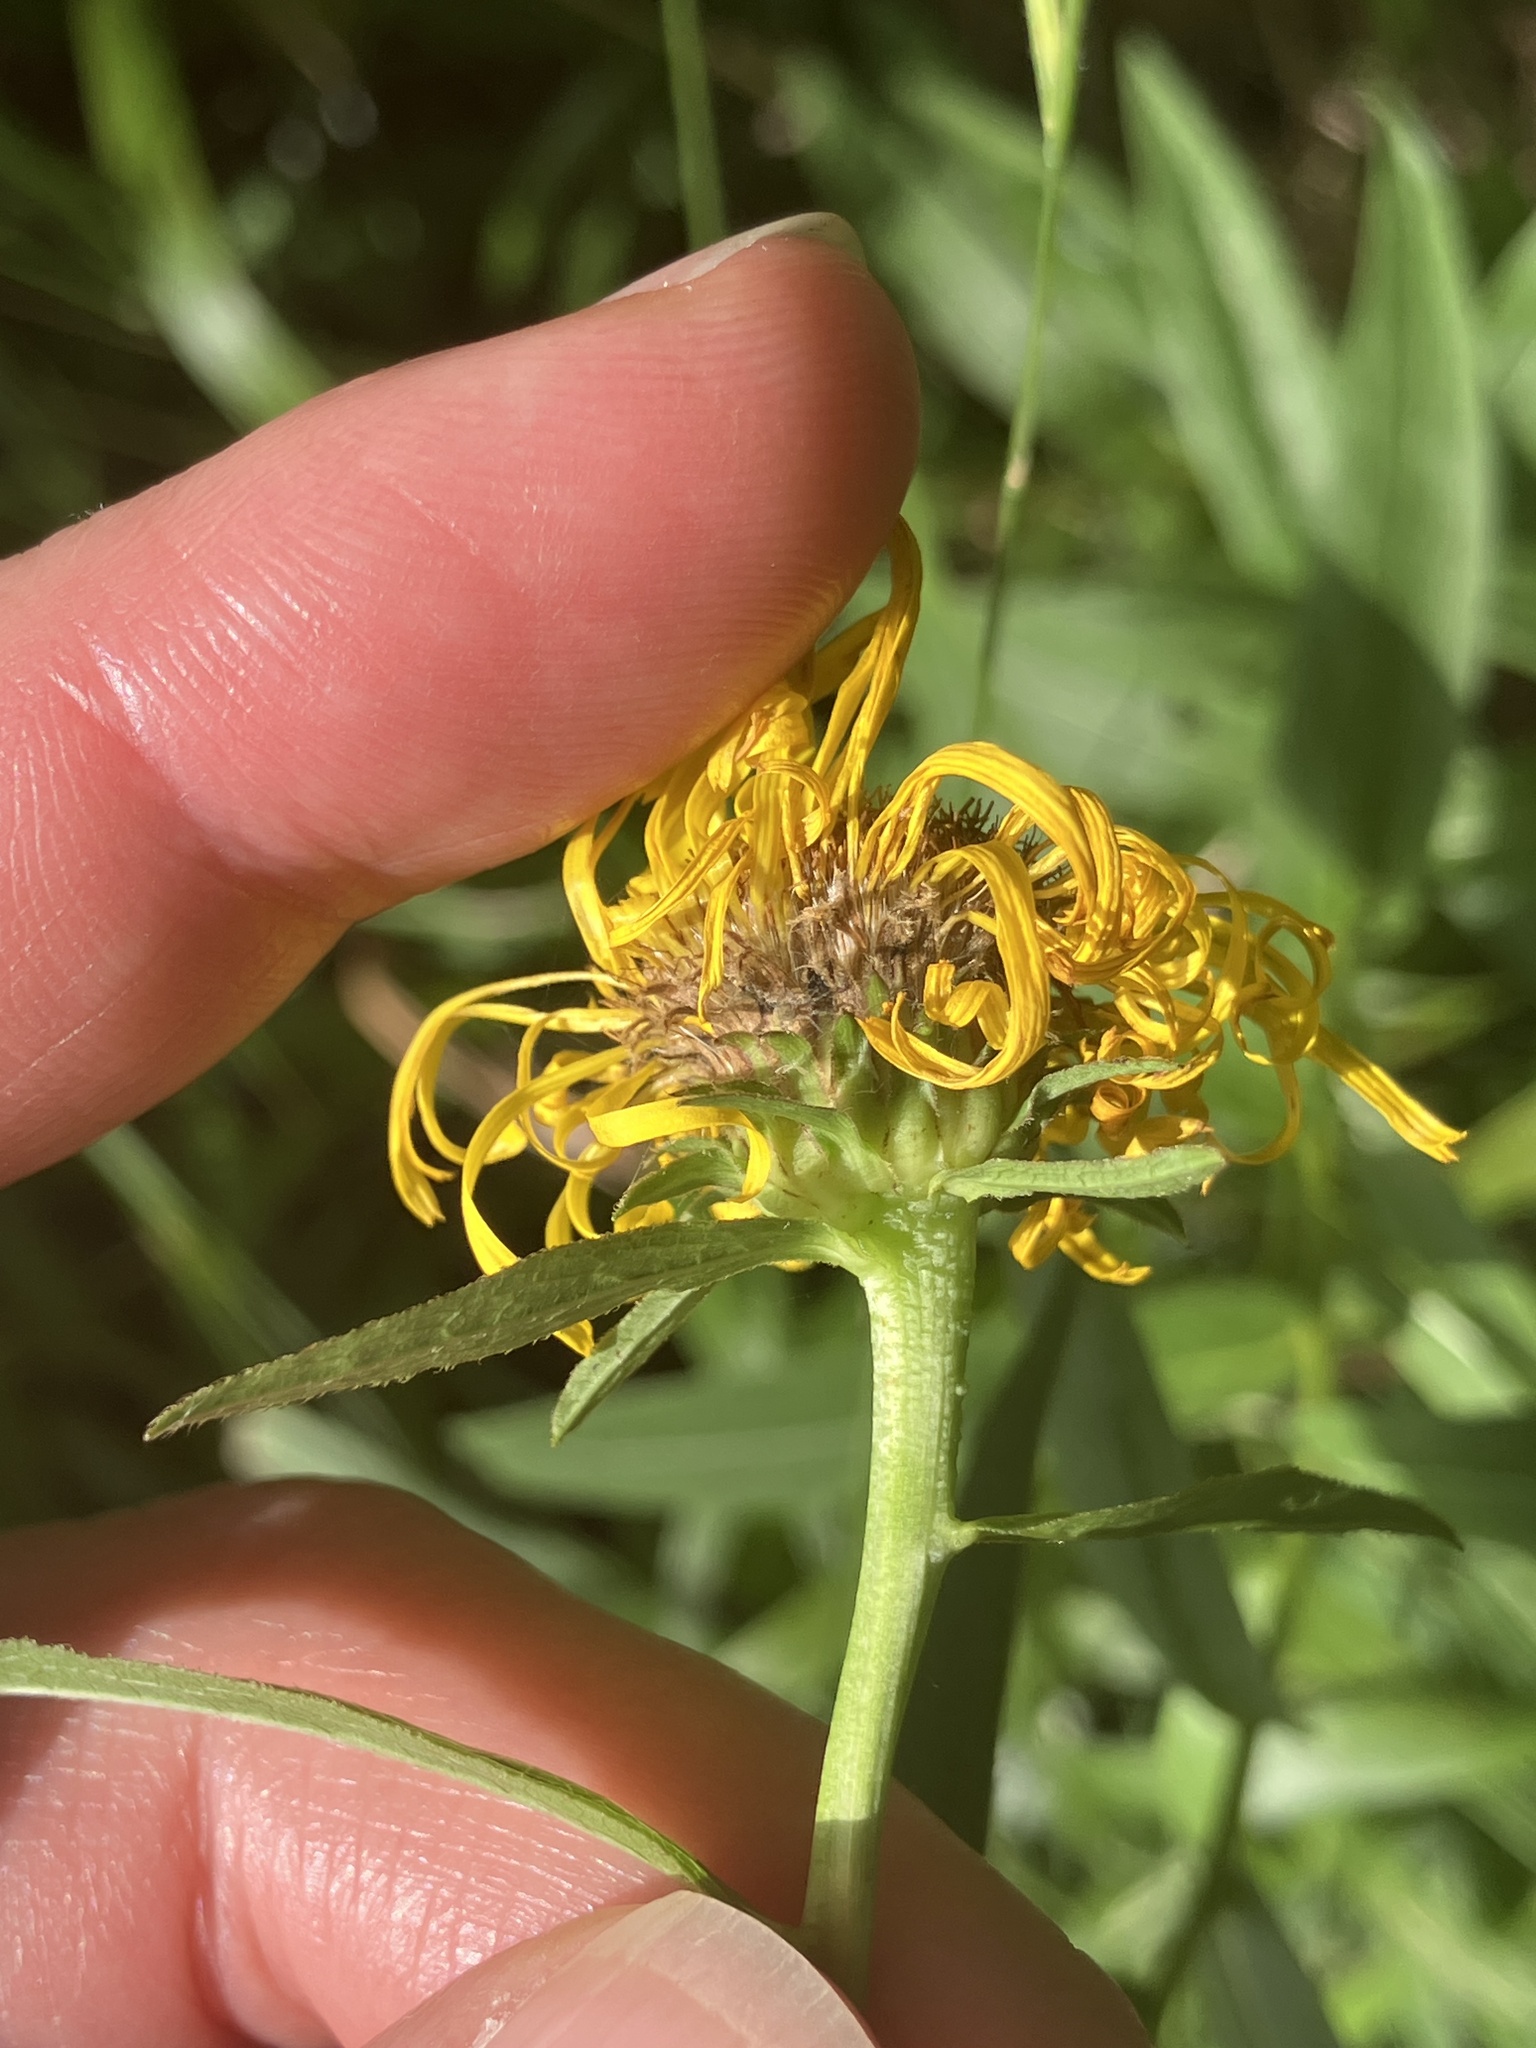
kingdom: Plantae
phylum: Tracheophyta
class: Magnoliopsida
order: Asterales
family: Asteraceae
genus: Pentanema
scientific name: Pentanema salicinum
